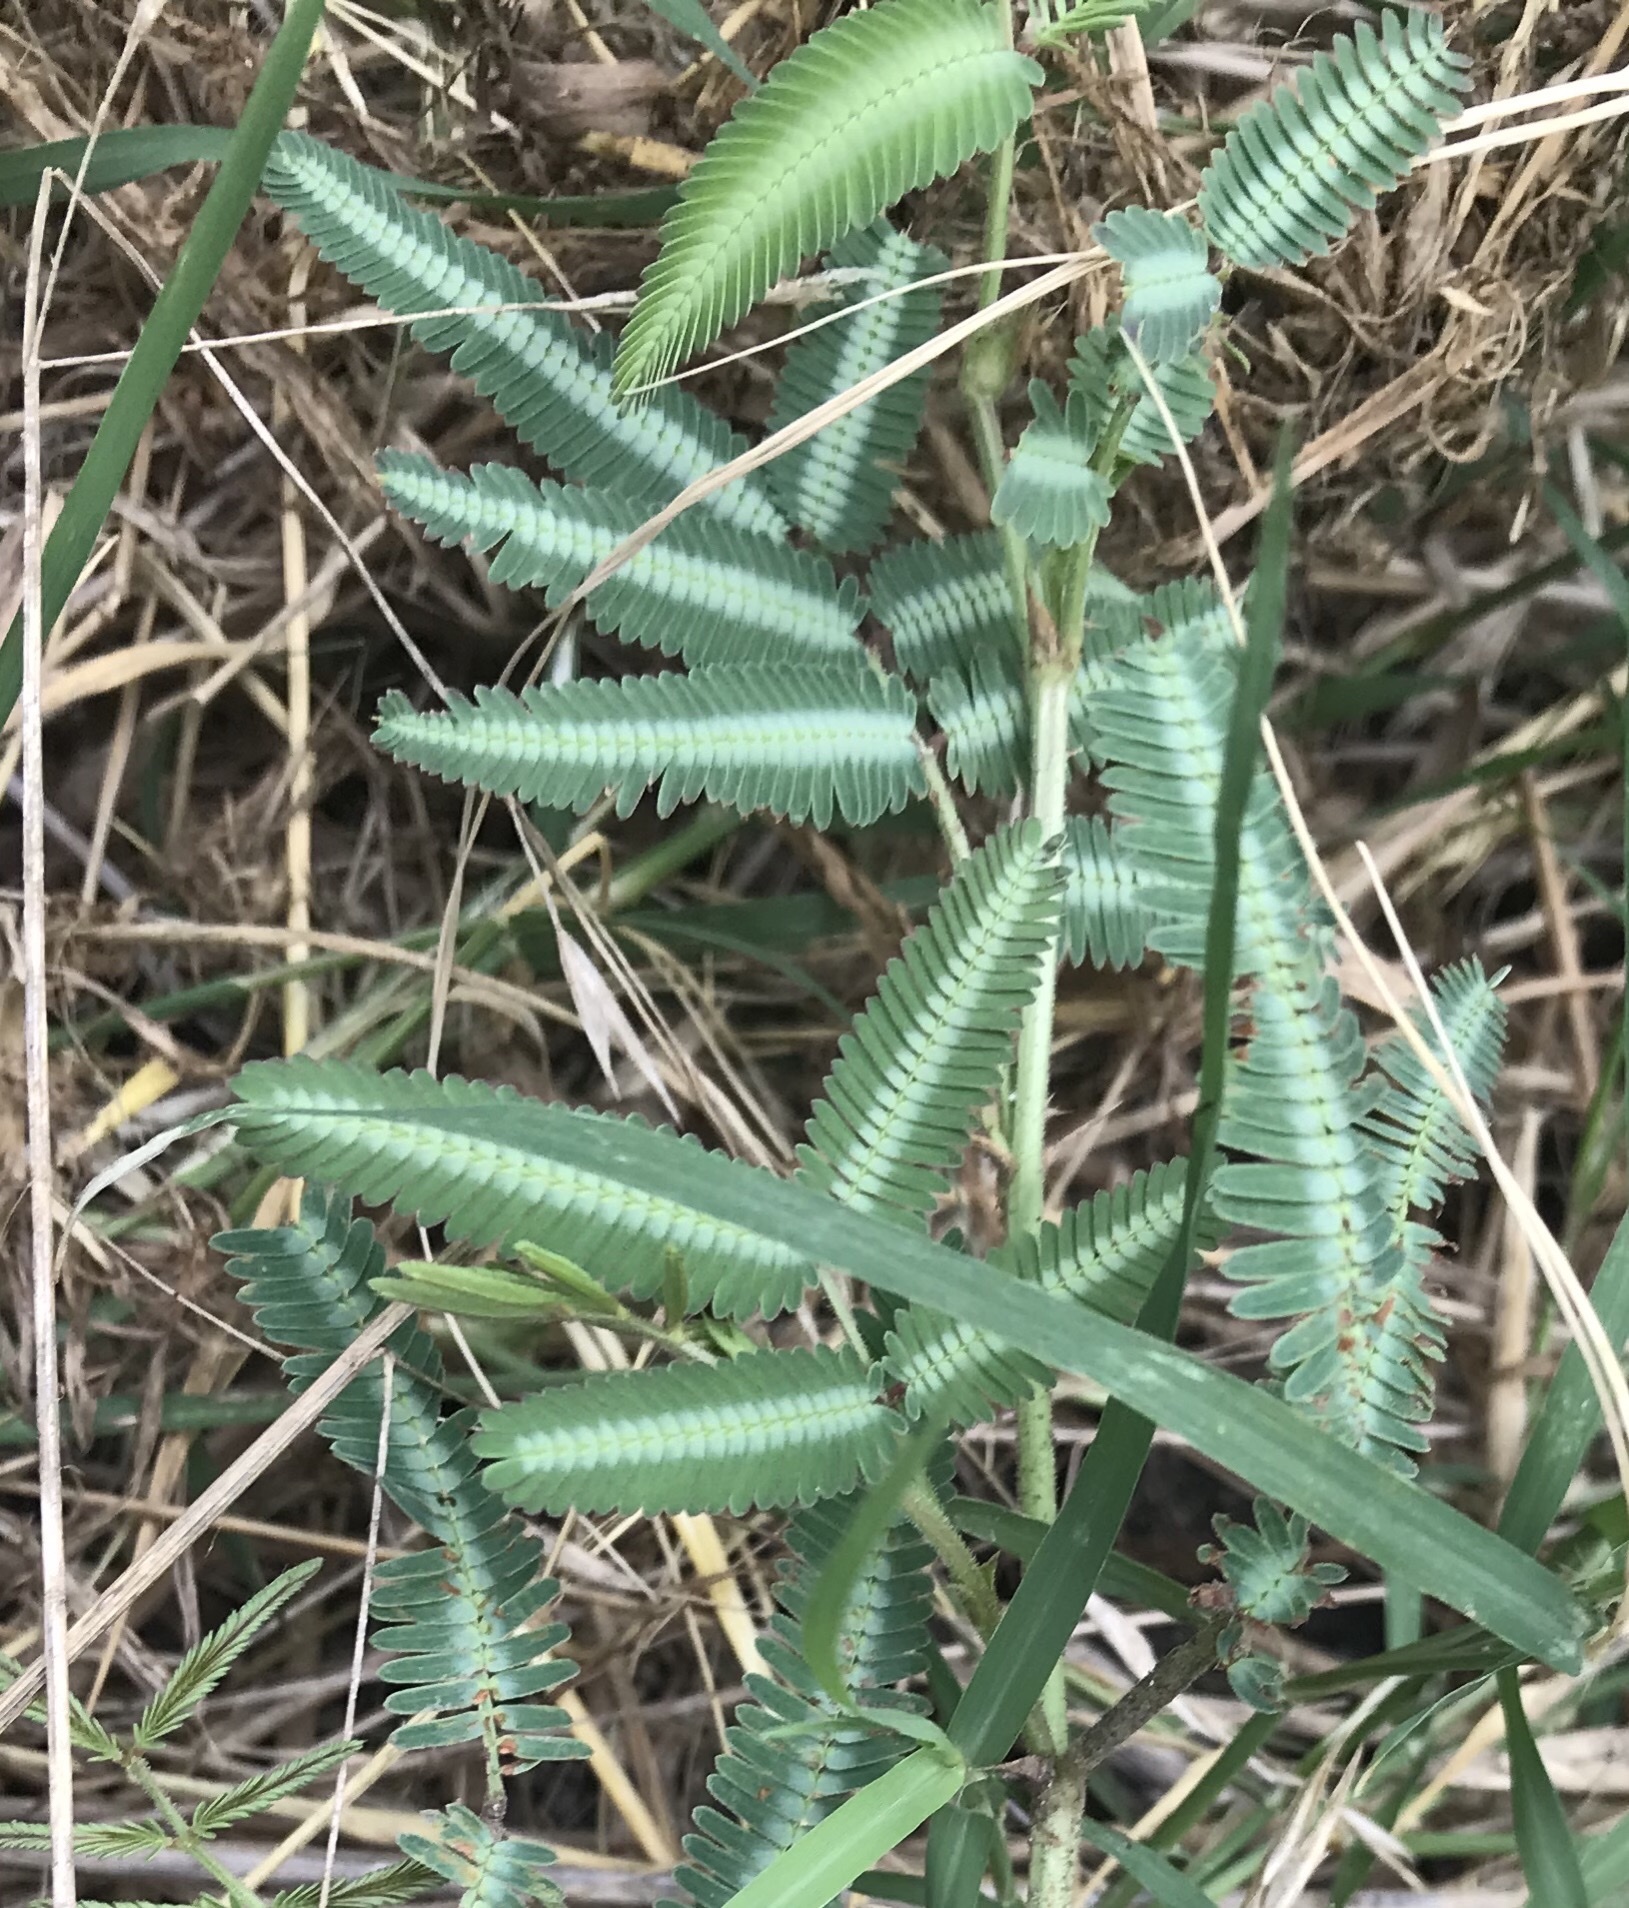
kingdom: Plantae
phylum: Tracheophyta
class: Magnoliopsida
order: Fabales
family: Fabaceae
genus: Neptunia
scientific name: Neptunia pubescens
